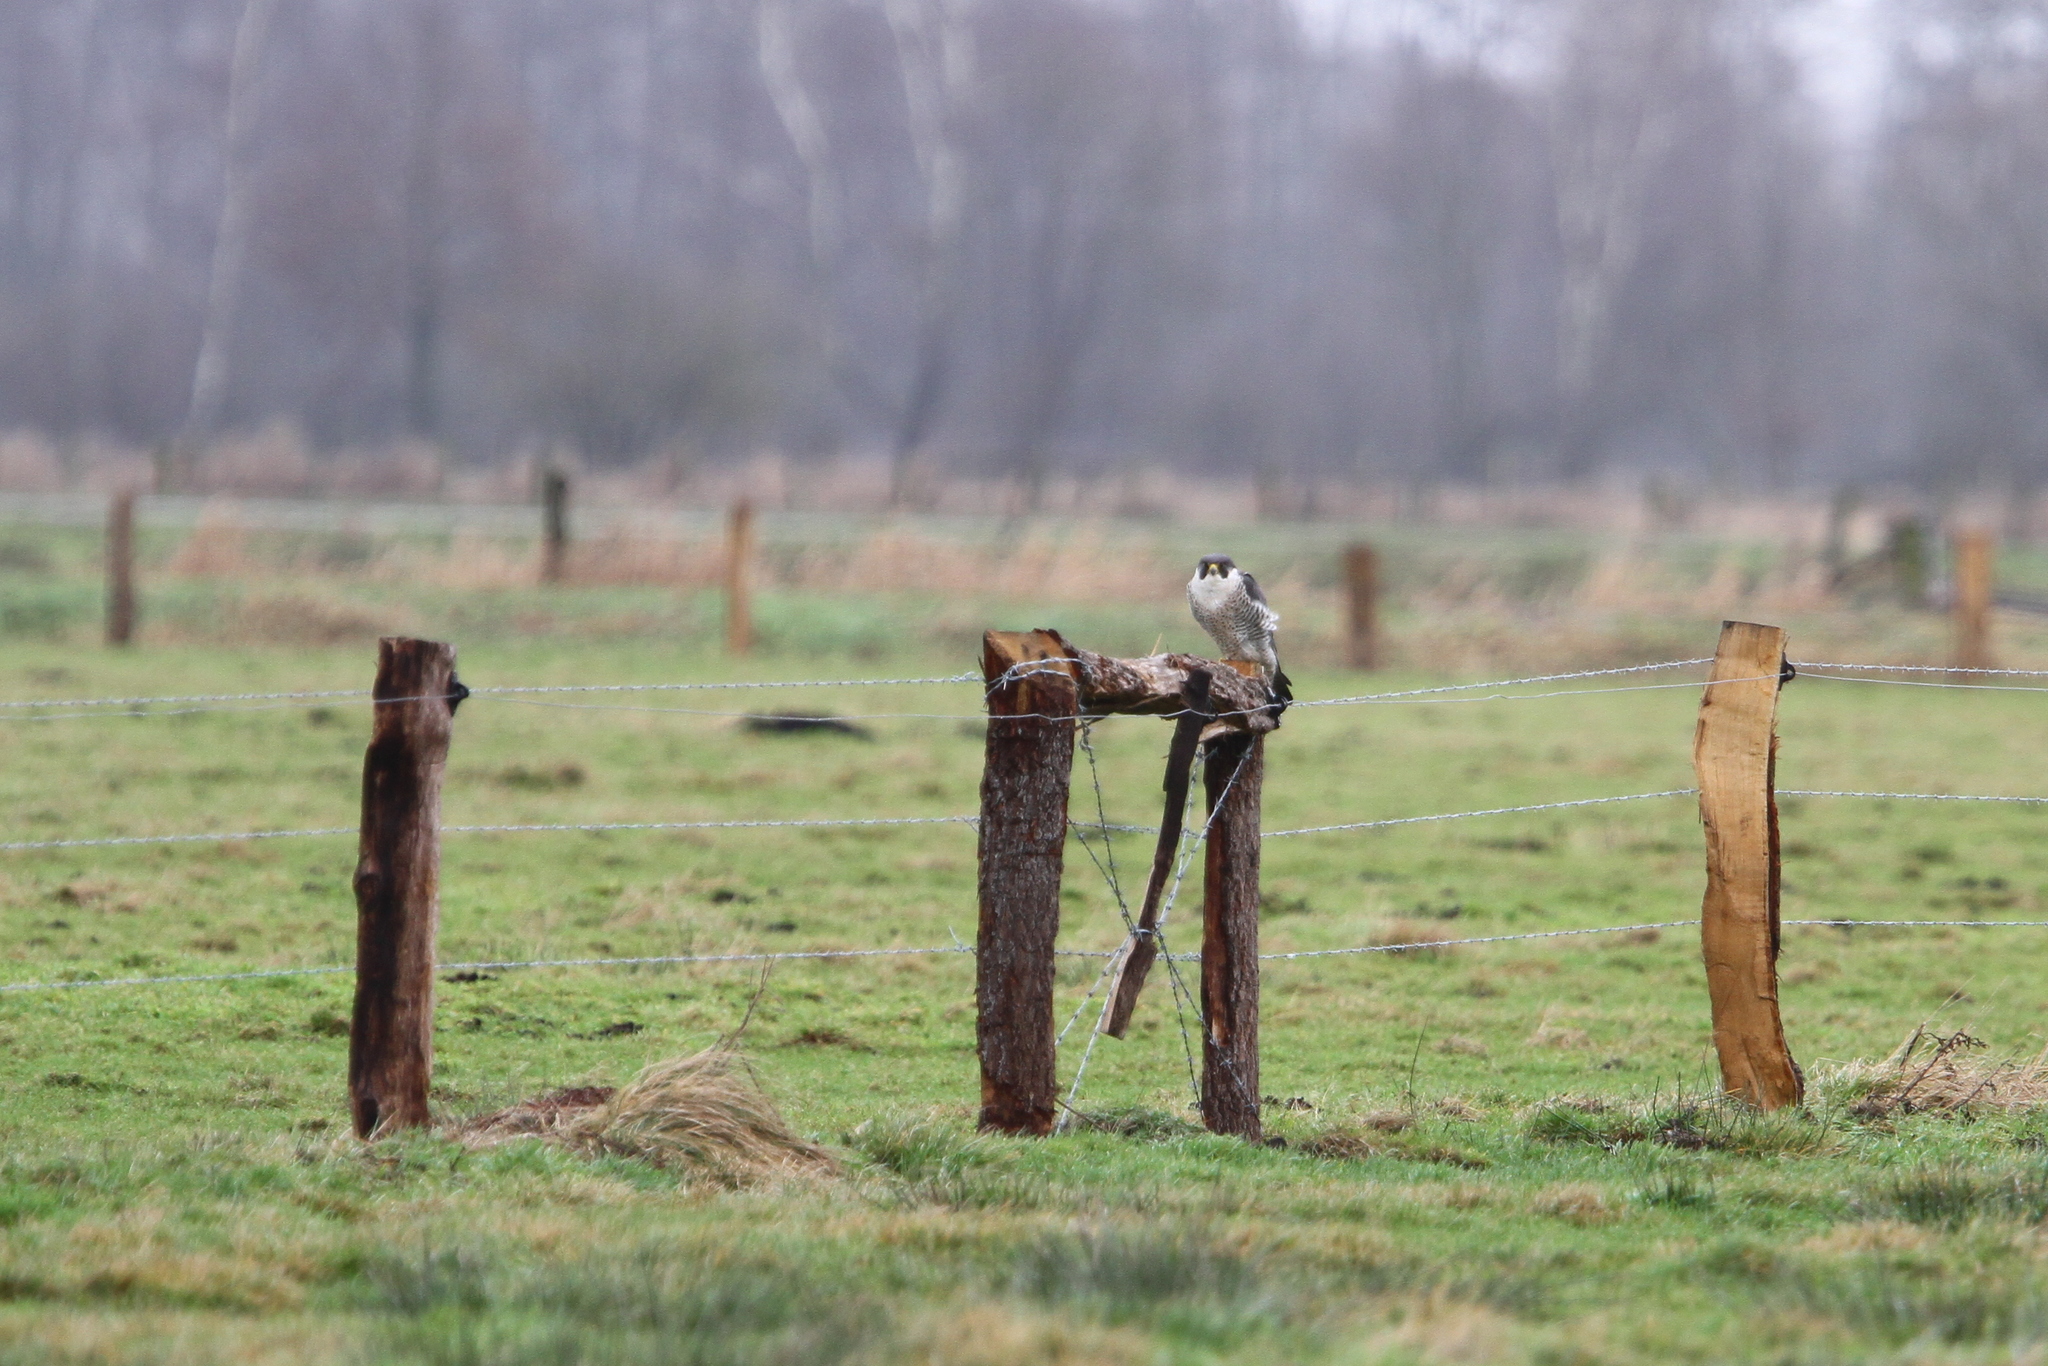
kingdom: Animalia
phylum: Chordata
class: Aves
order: Falconiformes
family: Falconidae
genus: Falco
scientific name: Falco peregrinus
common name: Peregrine falcon
